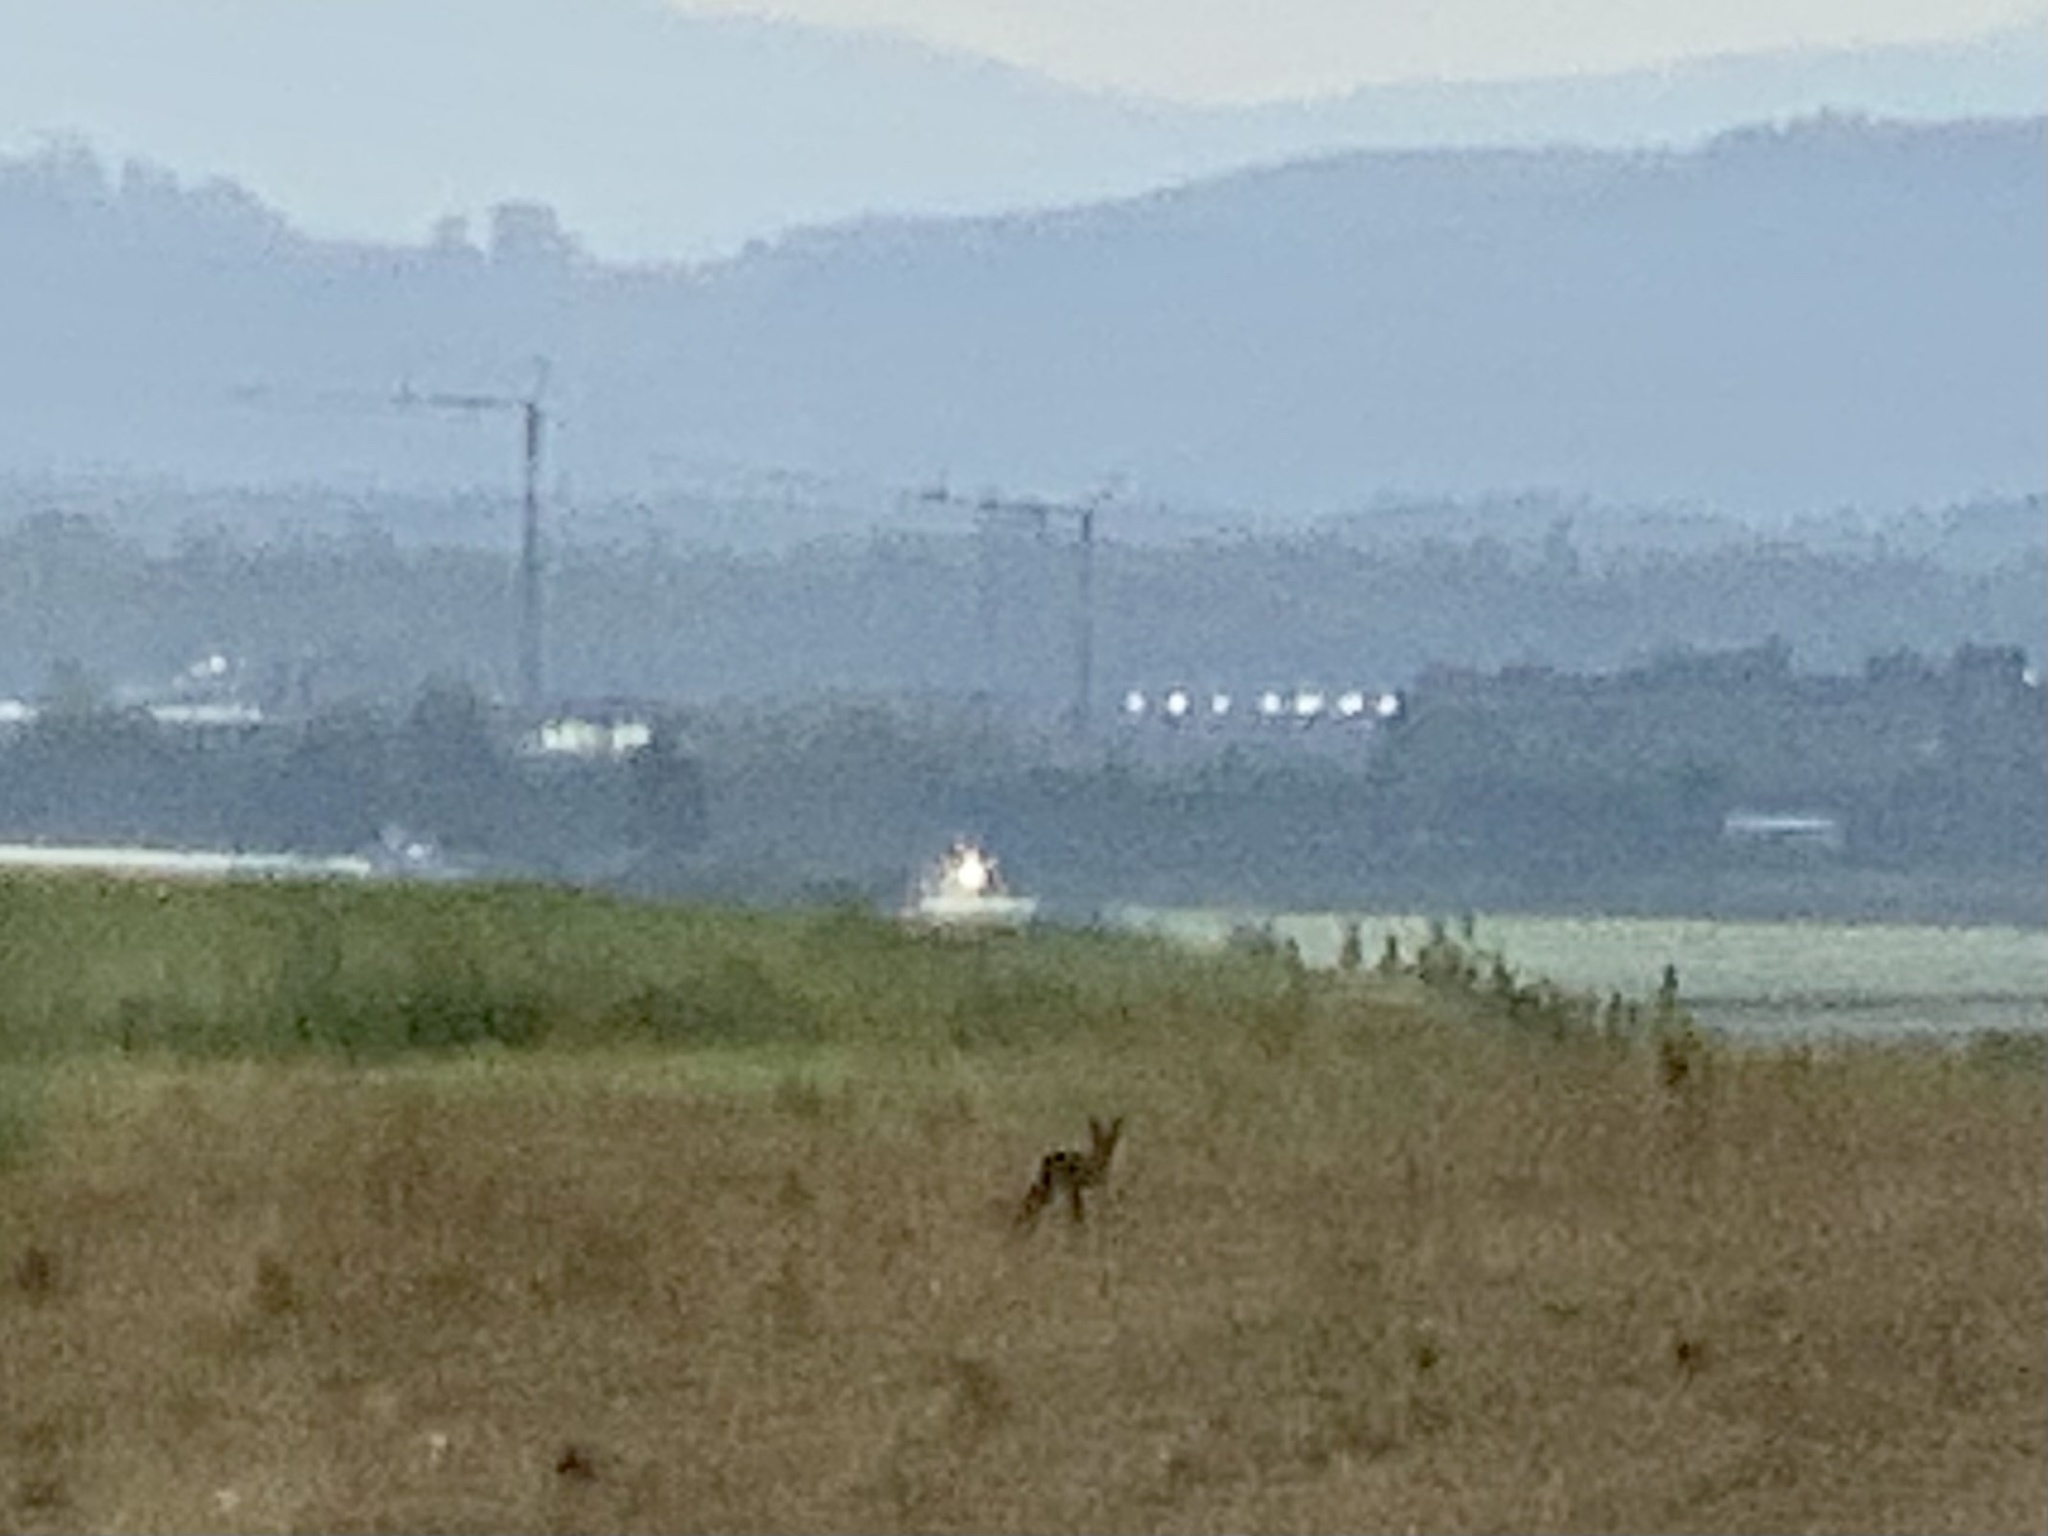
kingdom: Animalia
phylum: Chordata
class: Mammalia
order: Carnivora
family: Canidae
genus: Vulpes
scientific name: Vulpes vulpes
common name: Red fox
